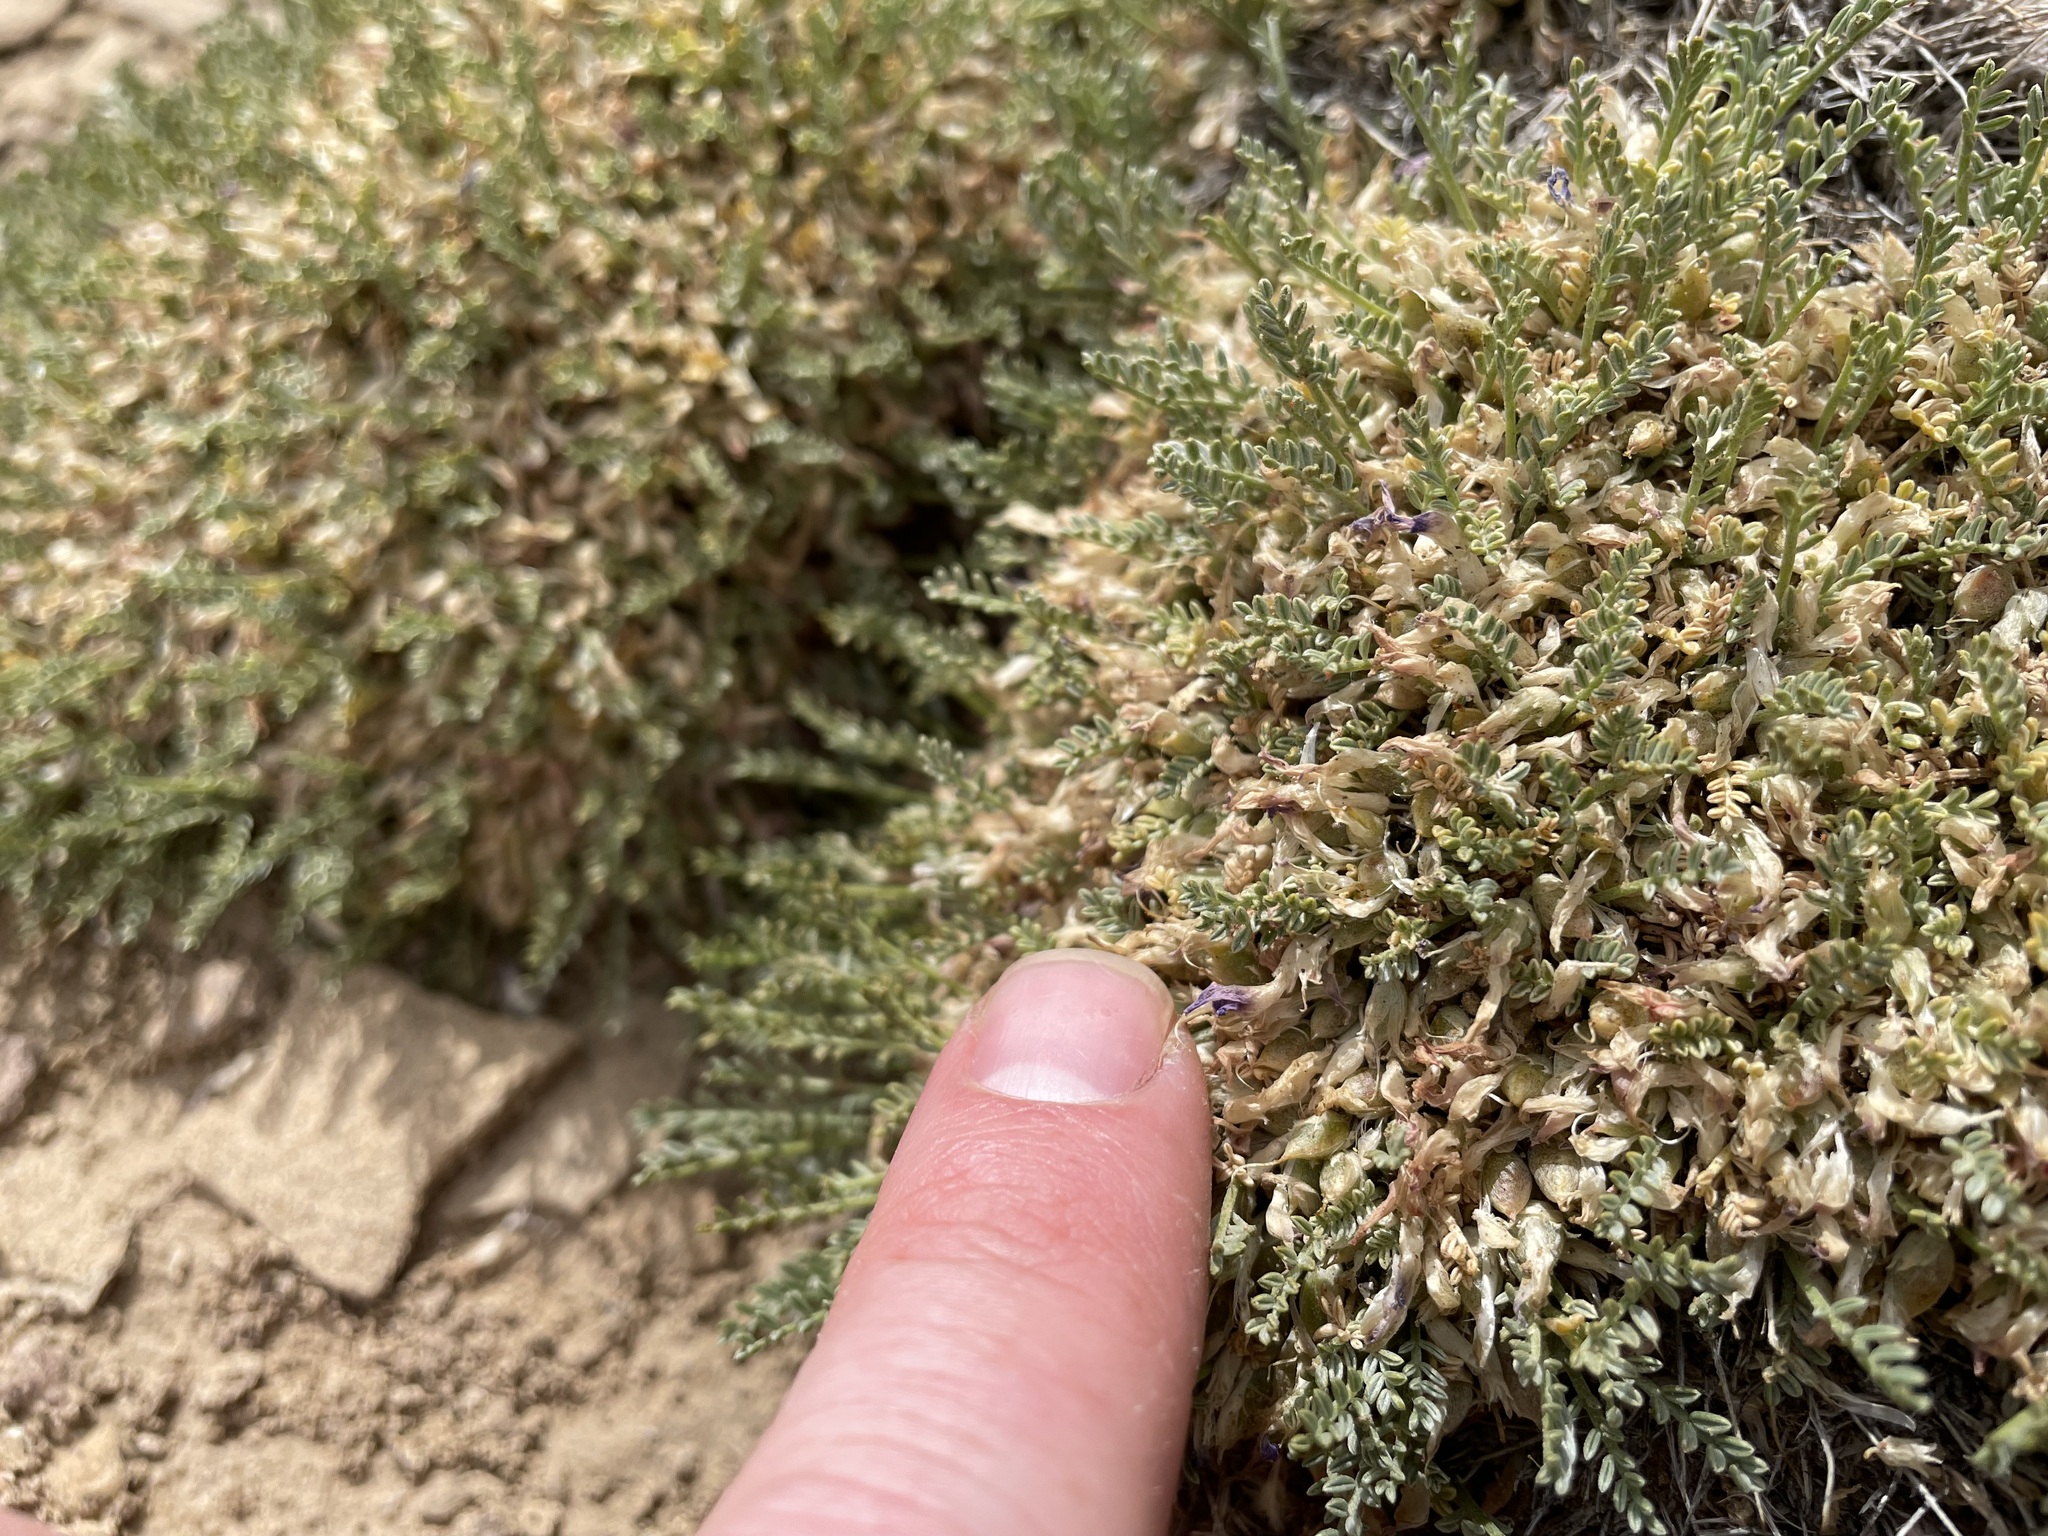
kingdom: Plantae
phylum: Tracheophyta
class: Magnoliopsida
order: Fabales
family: Fabaceae
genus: Astragalus
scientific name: Astragalus humillimus
